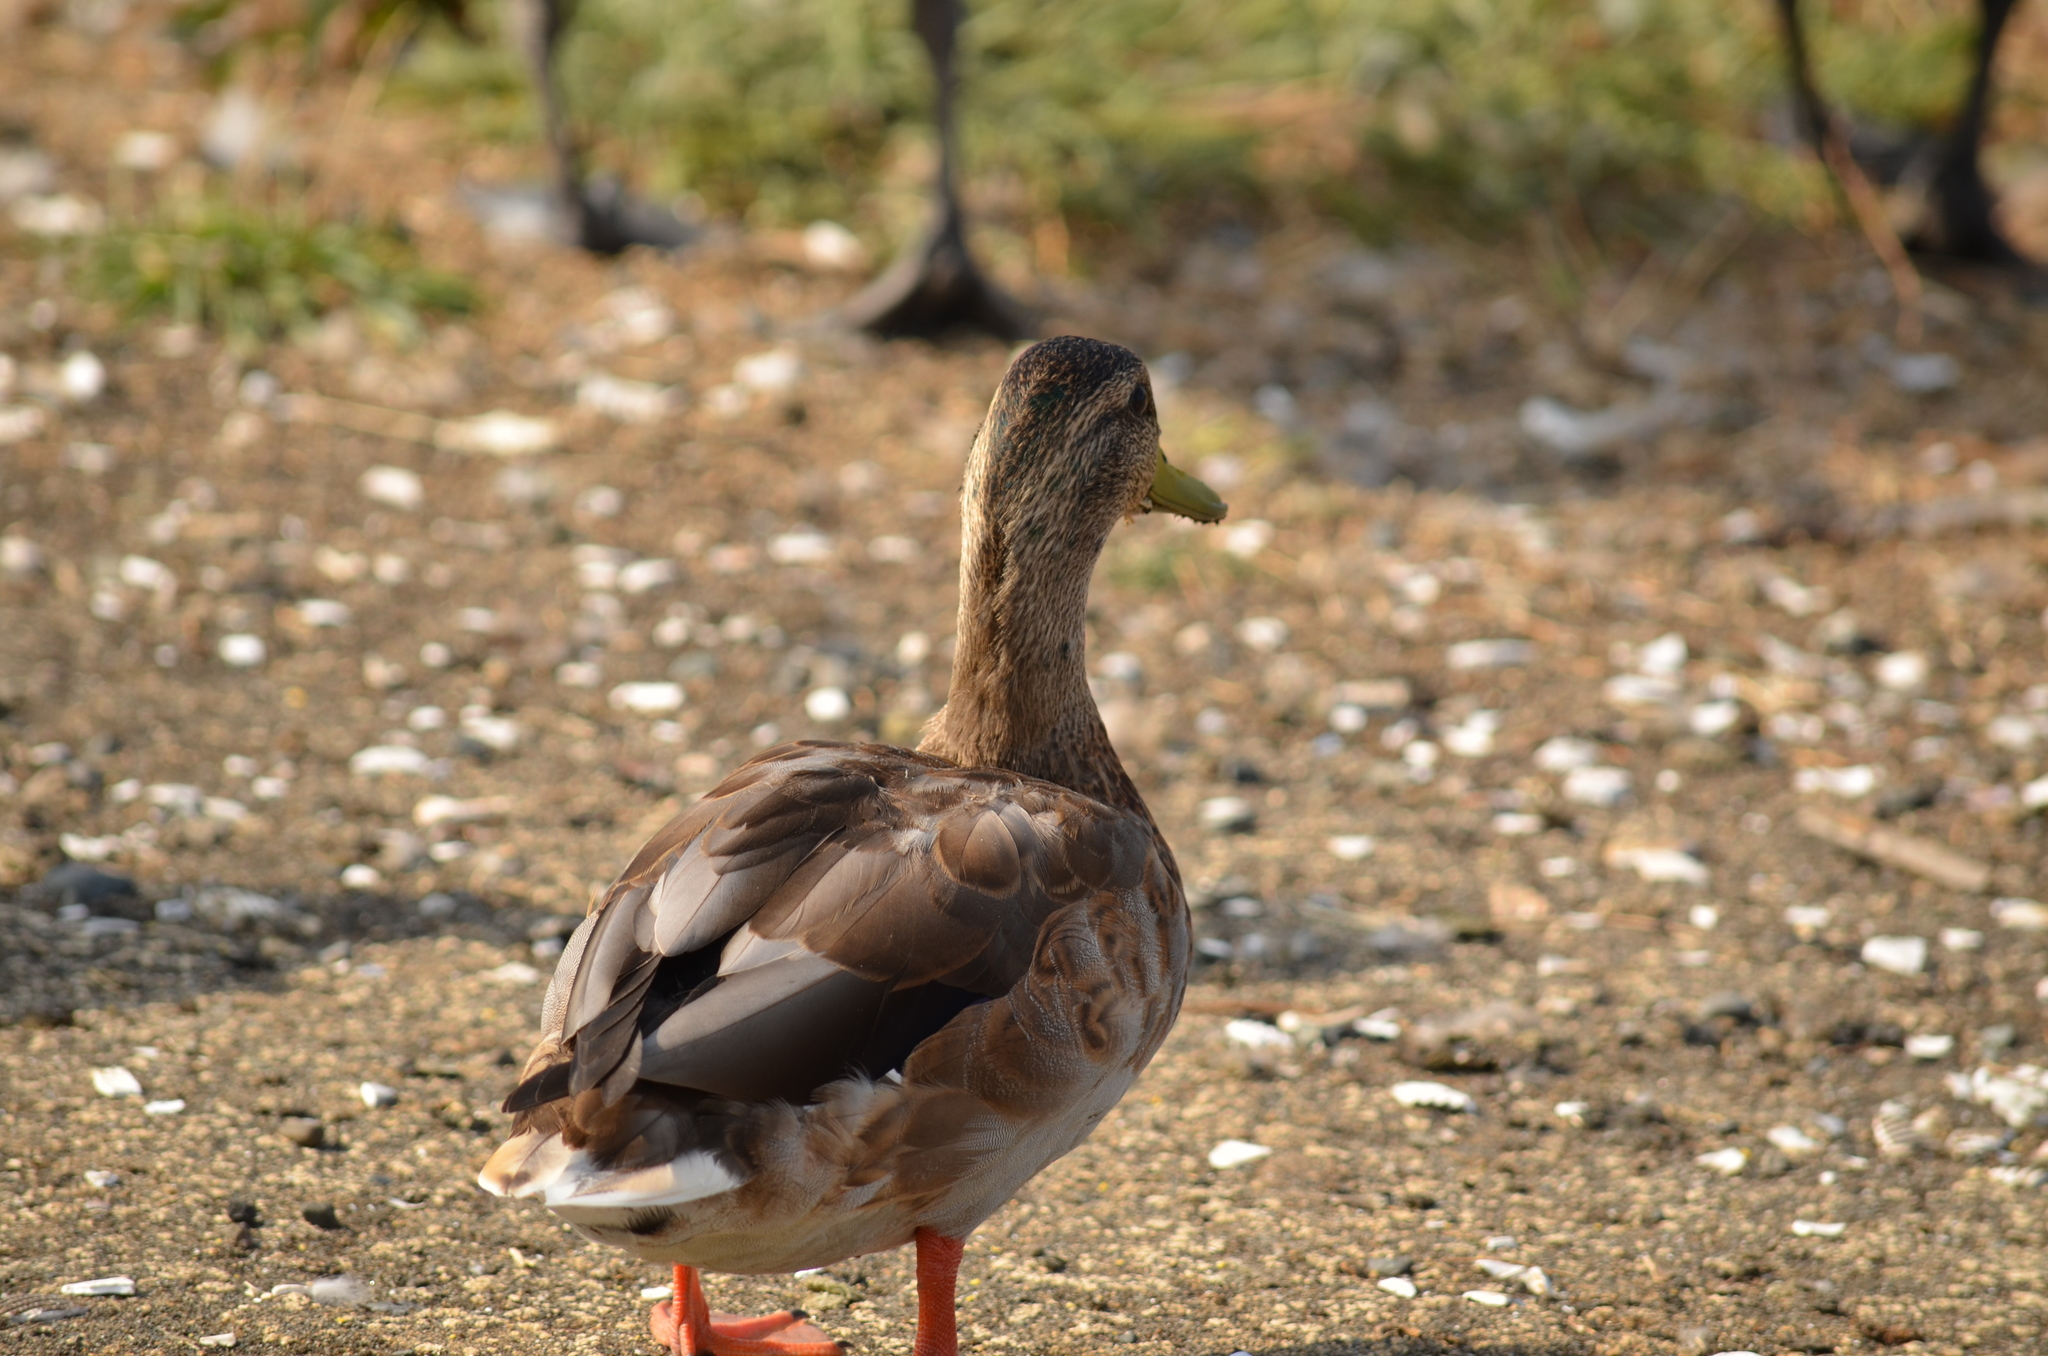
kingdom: Animalia
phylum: Chordata
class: Aves
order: Anseriformes
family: Anatidae
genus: Anas
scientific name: Anas platyrhynchos
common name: Mallard
